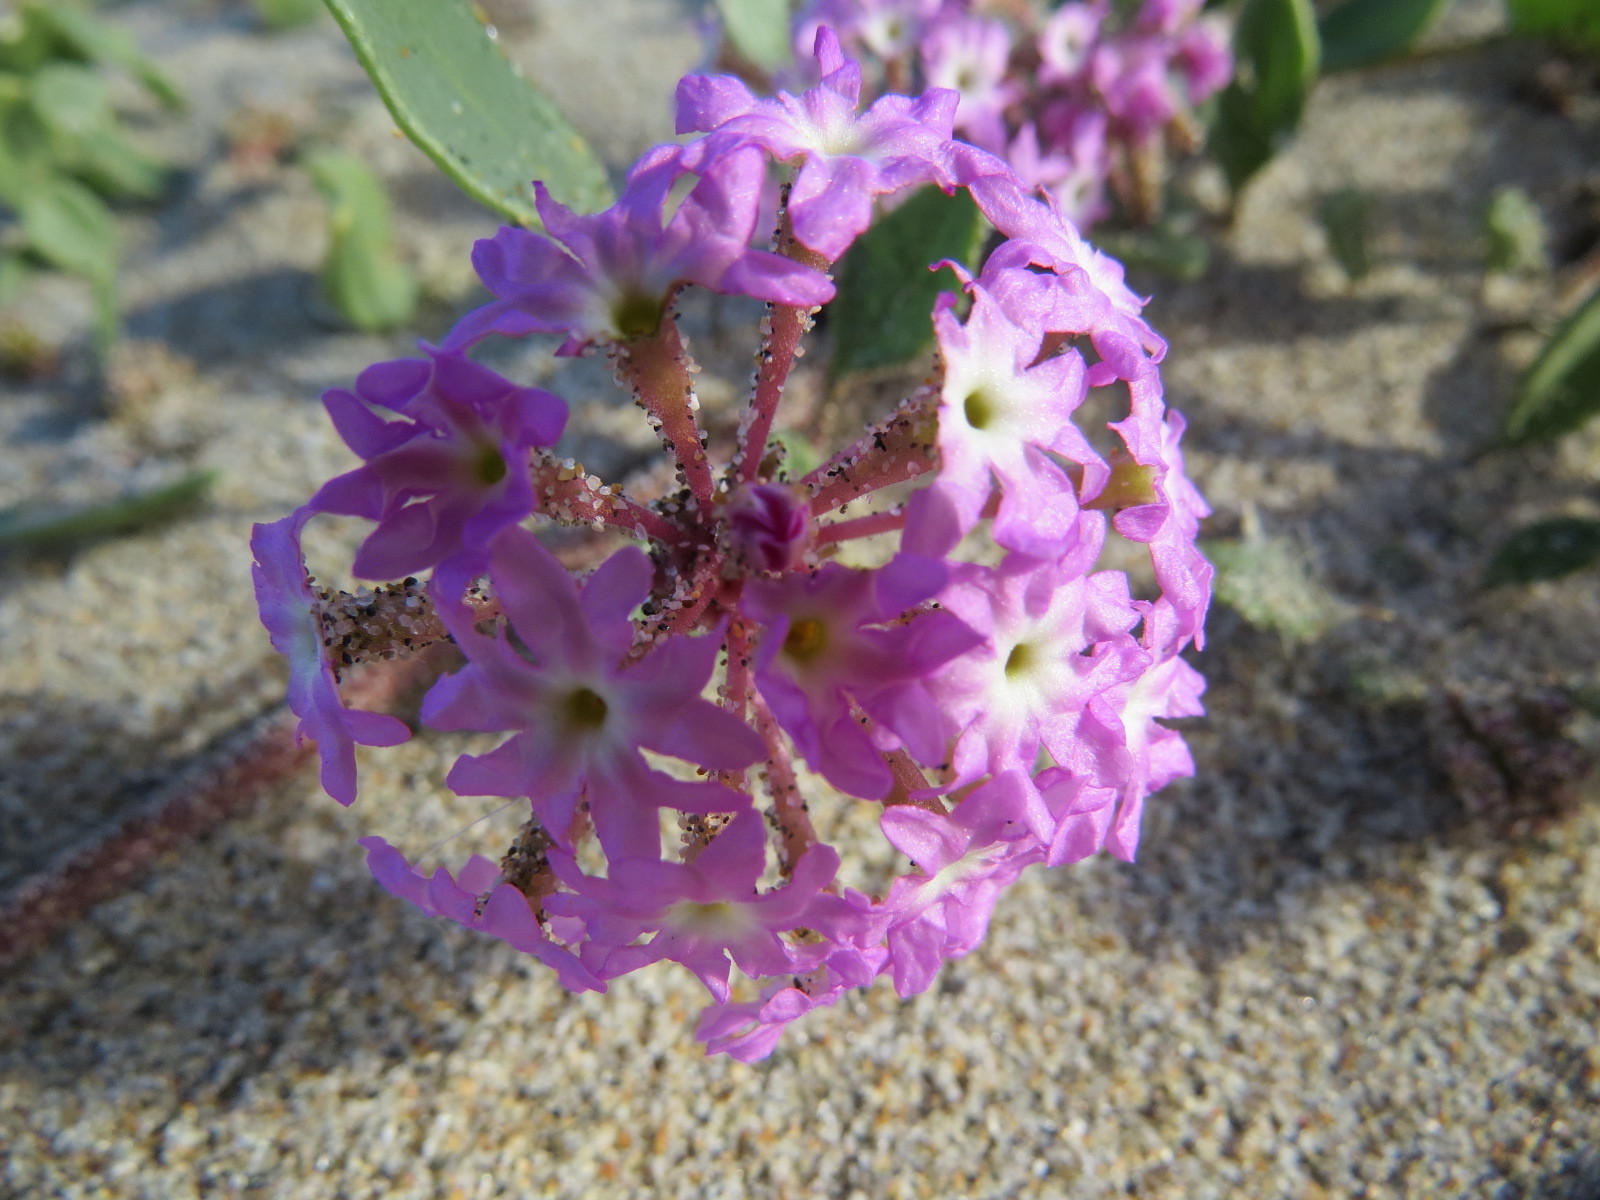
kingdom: Plantae
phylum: Tracheophyta
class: Magnoliopsida
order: Caryophyllales
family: Nyctaginaceae
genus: Abronia
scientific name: Abronia umbellata
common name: Sand-verbena
